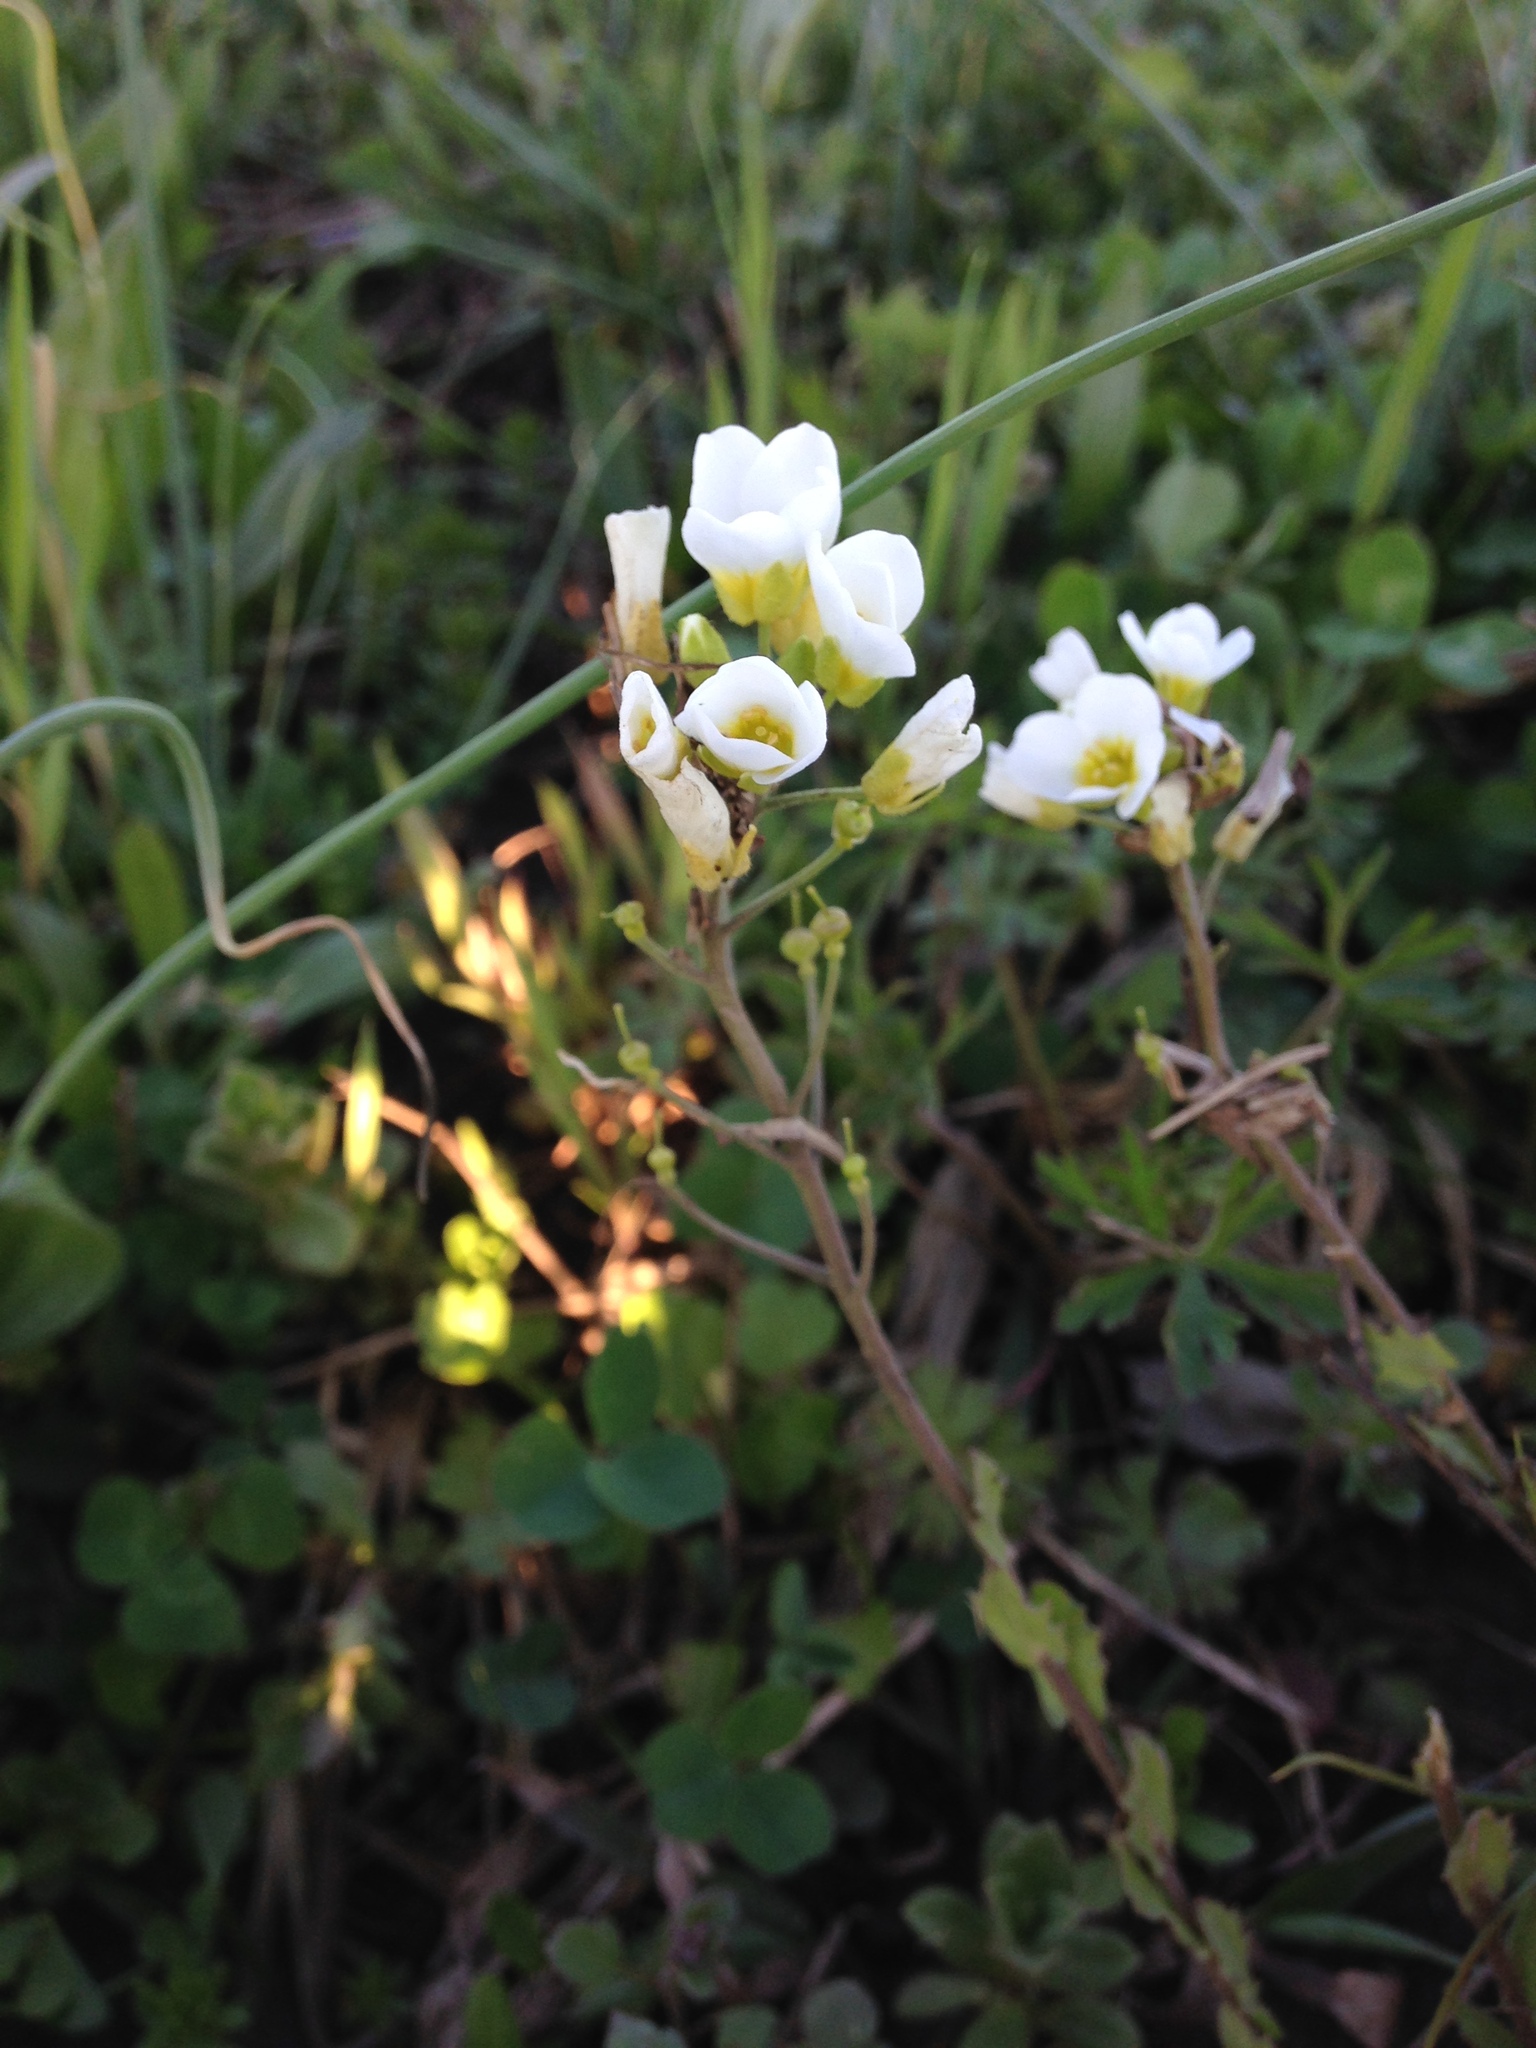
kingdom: Plantae
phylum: Tracheophyta
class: Magnoliopsida
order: Brassicales
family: Brassicaceae
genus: Paysonia
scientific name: Paysonia perforata
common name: Spring creek bladderpod
